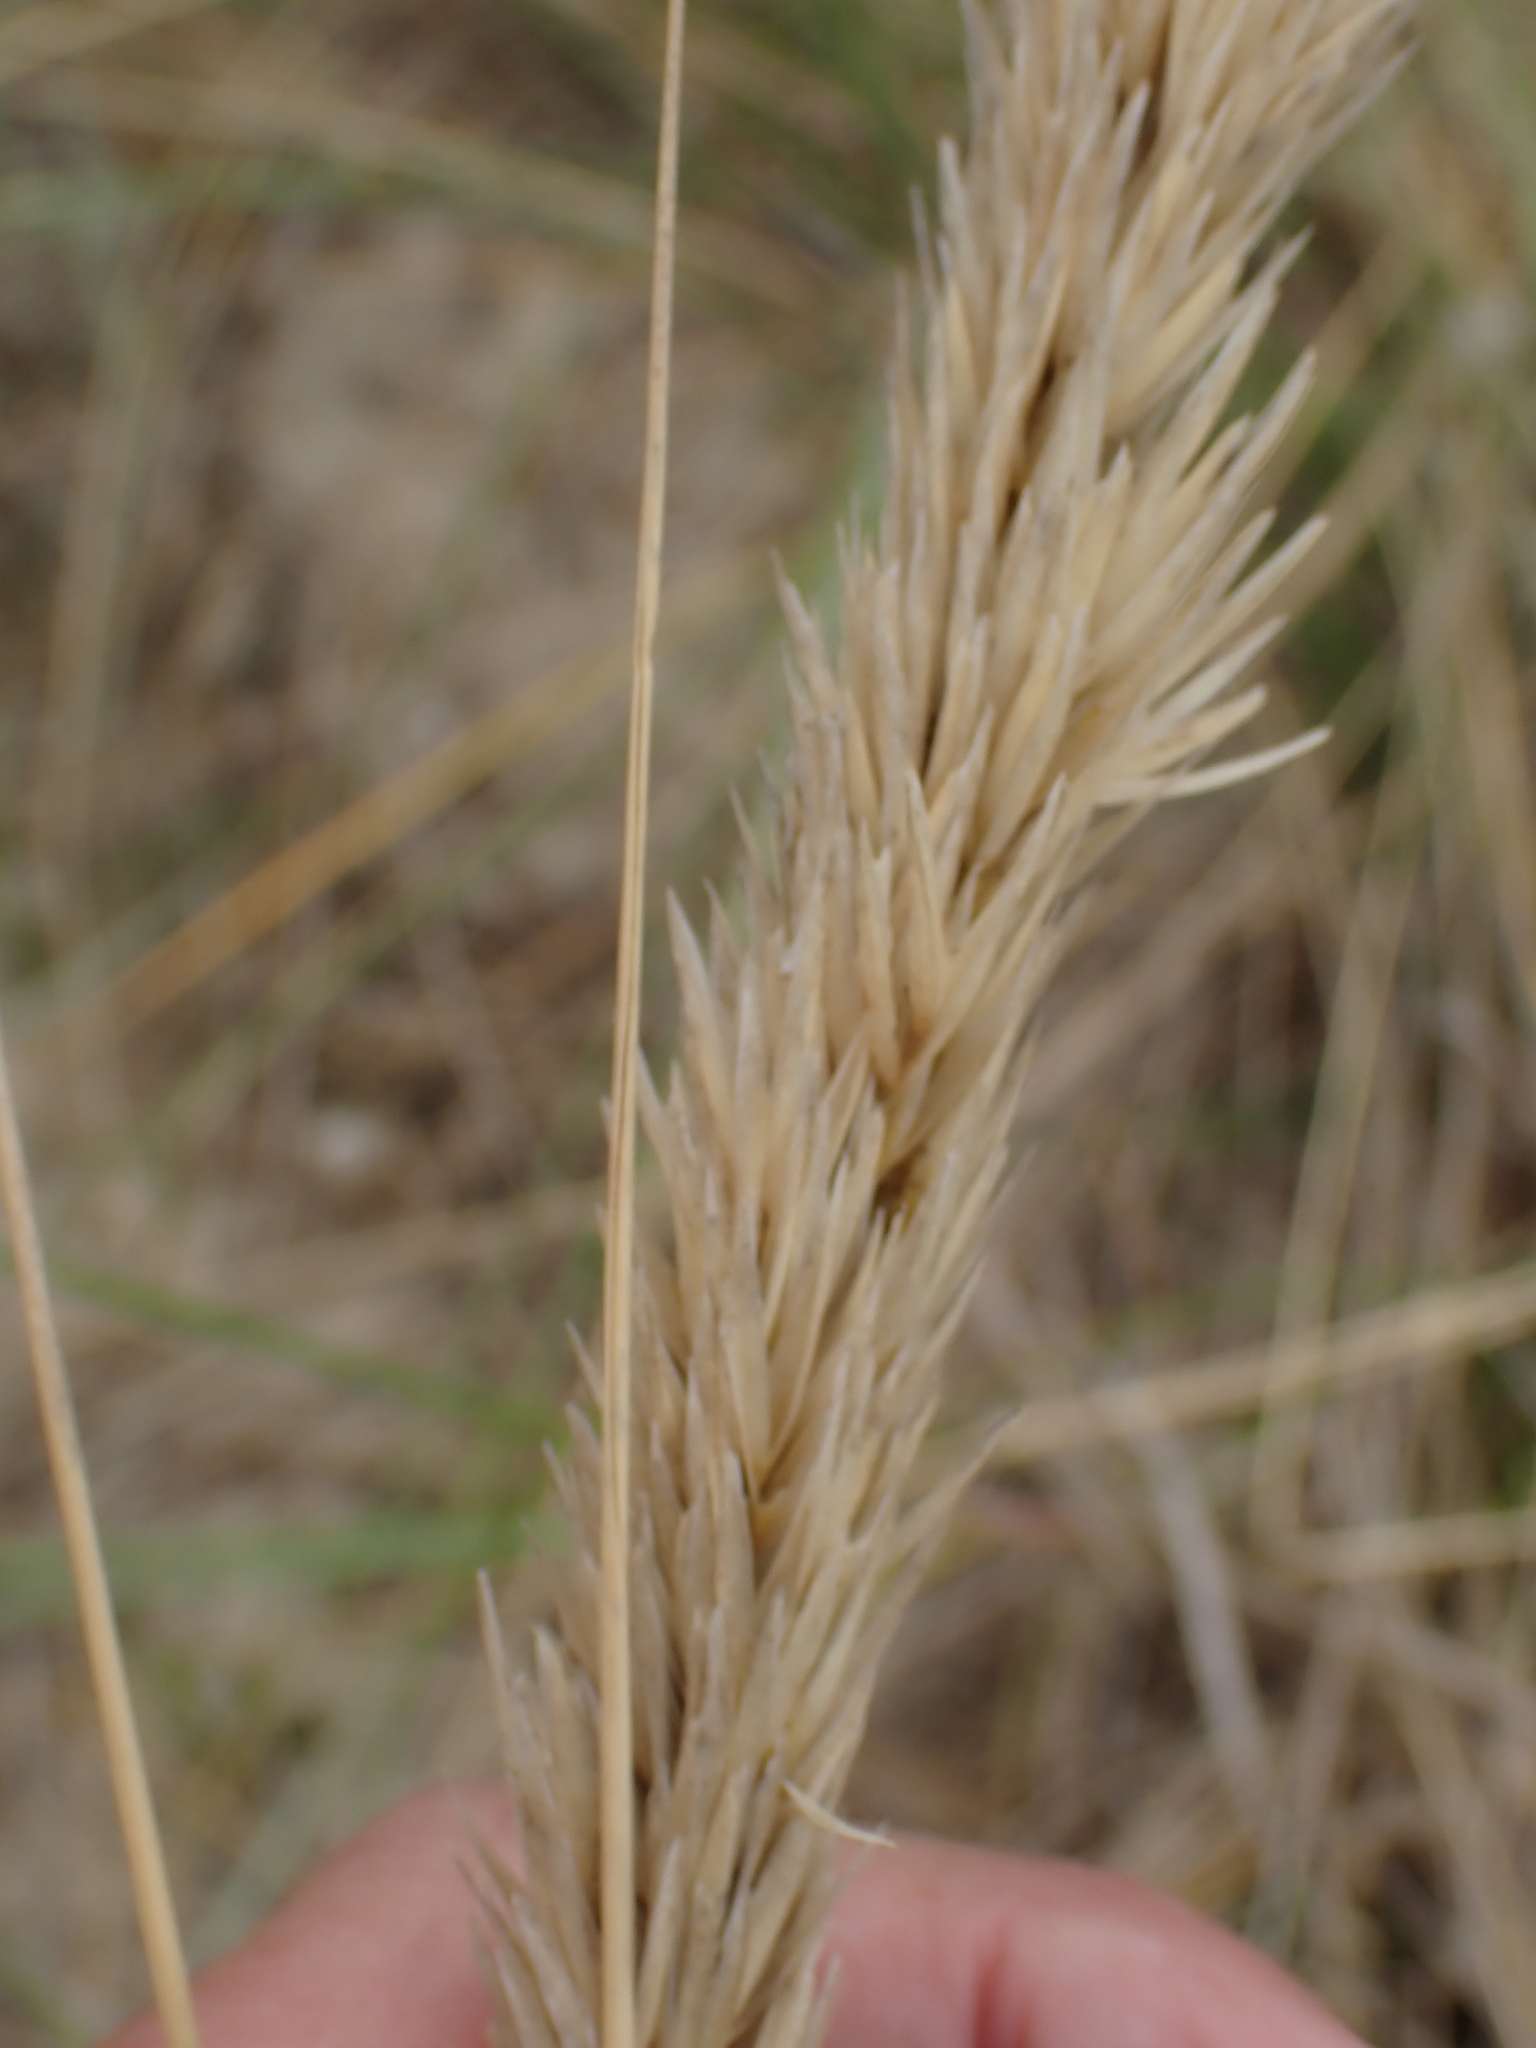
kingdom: Plantae
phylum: Tracheophyta
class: Liliopsida
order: Poales
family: Poaceae
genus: Calamagrostis
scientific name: Calamagrostis arenaria
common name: European beachgrass
